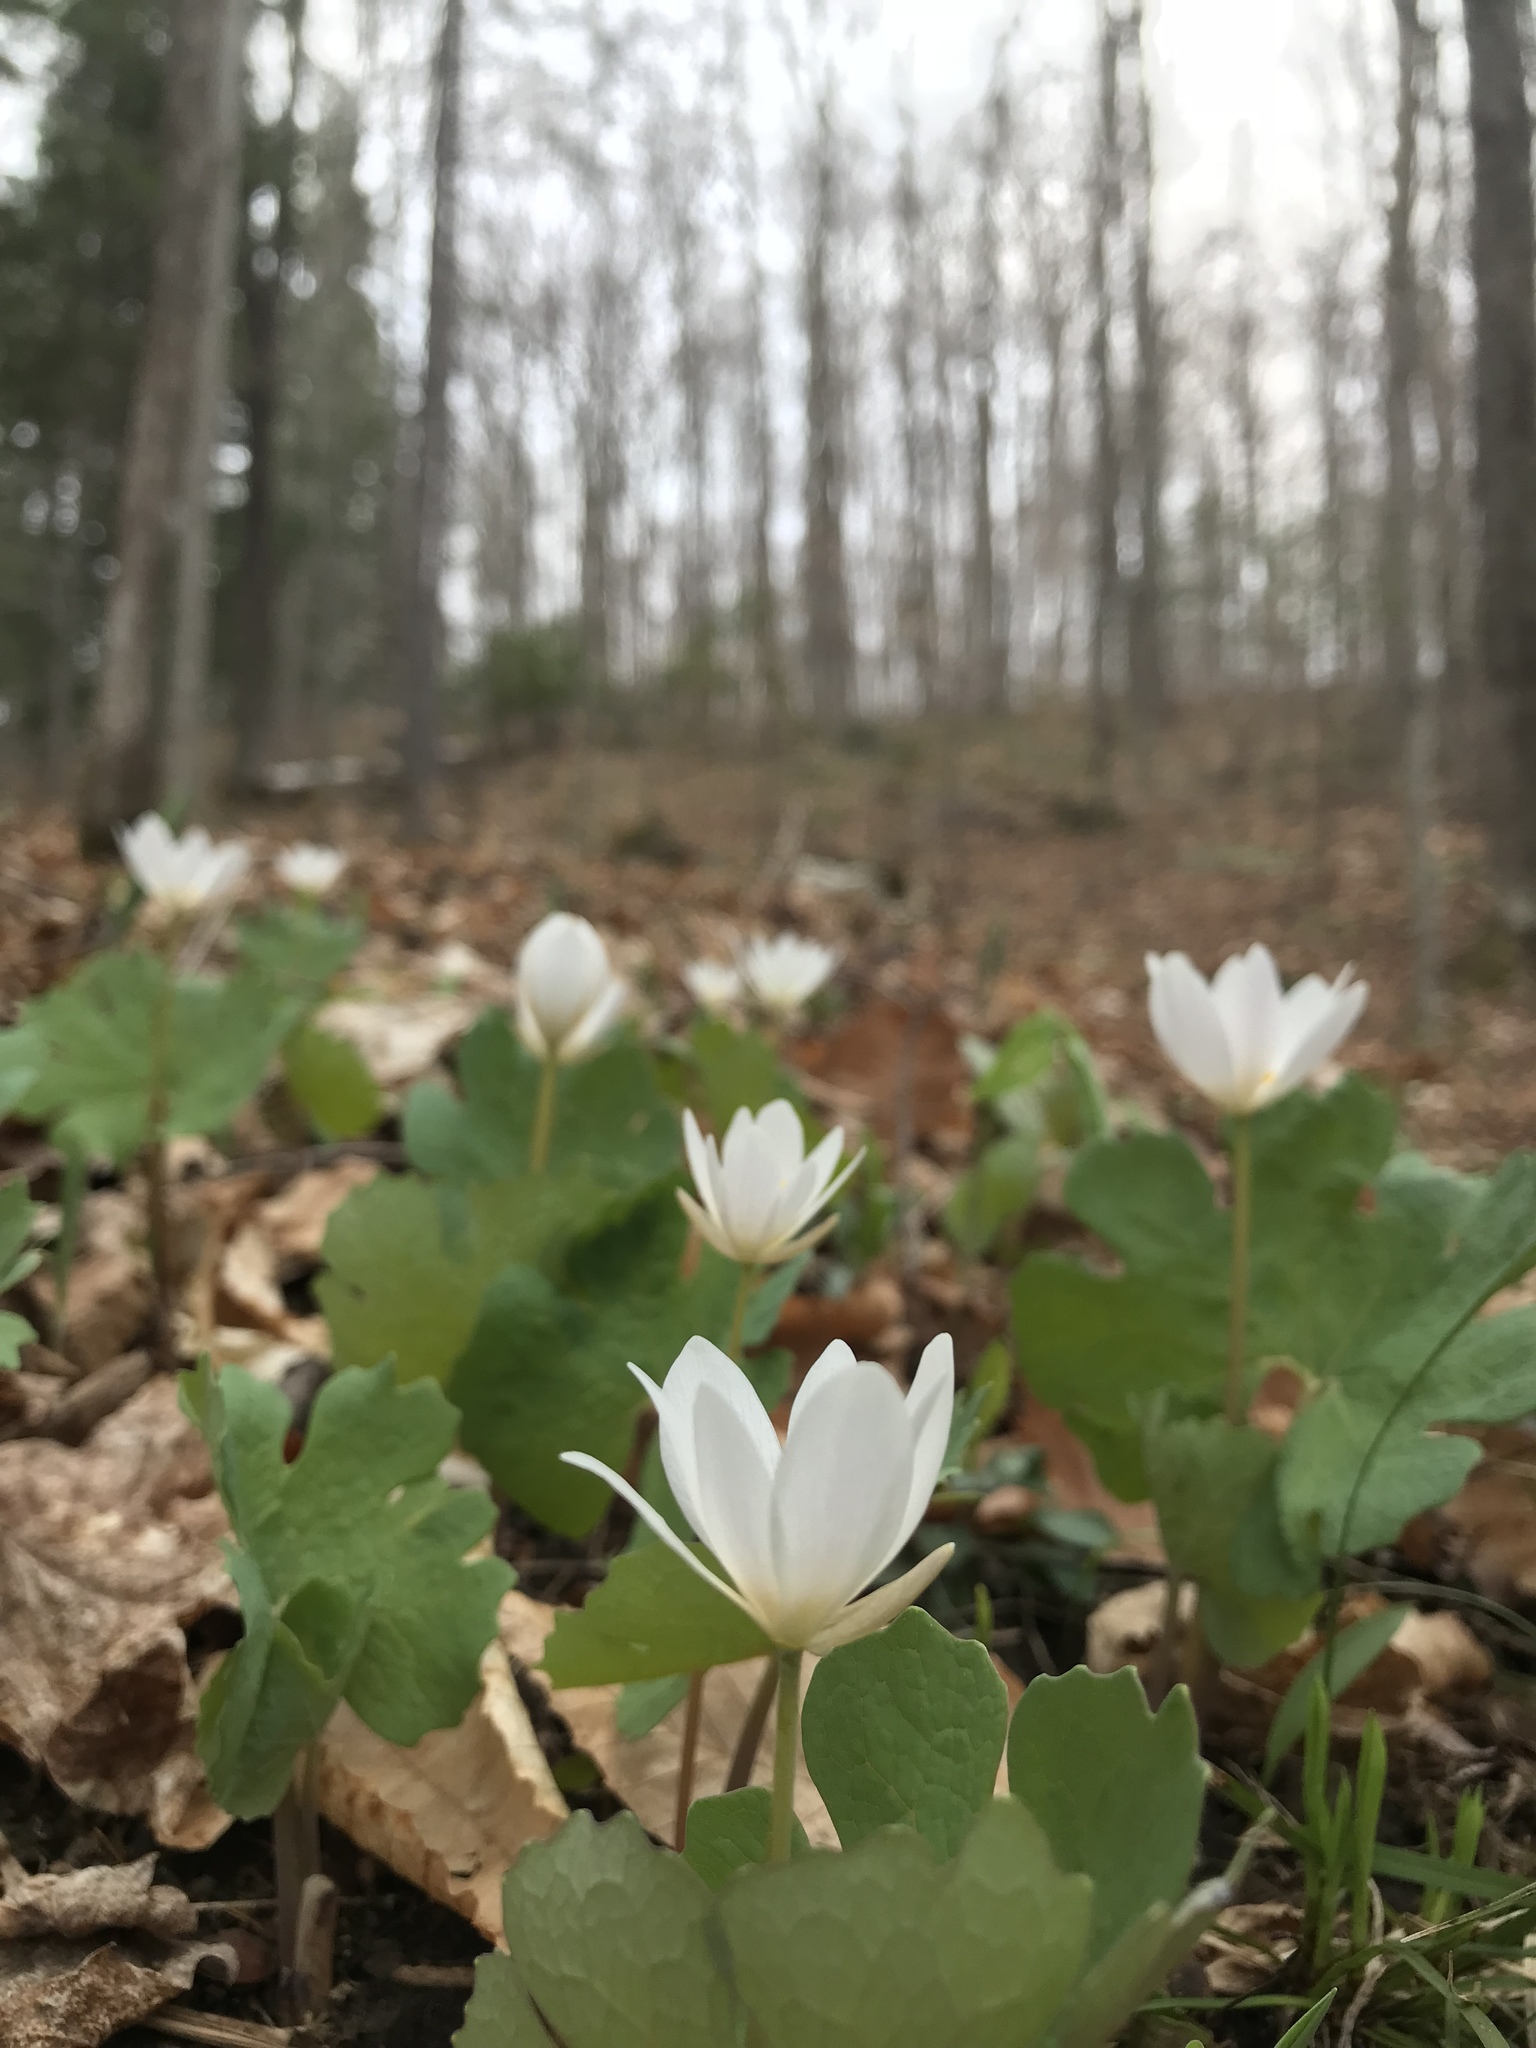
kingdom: Plantae
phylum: Tracheophyta
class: Magnoliopsida
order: Ranunculales
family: Papaveraceae
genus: Sanguinaria
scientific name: Sanguinaria canadensis
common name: Bloodroot
